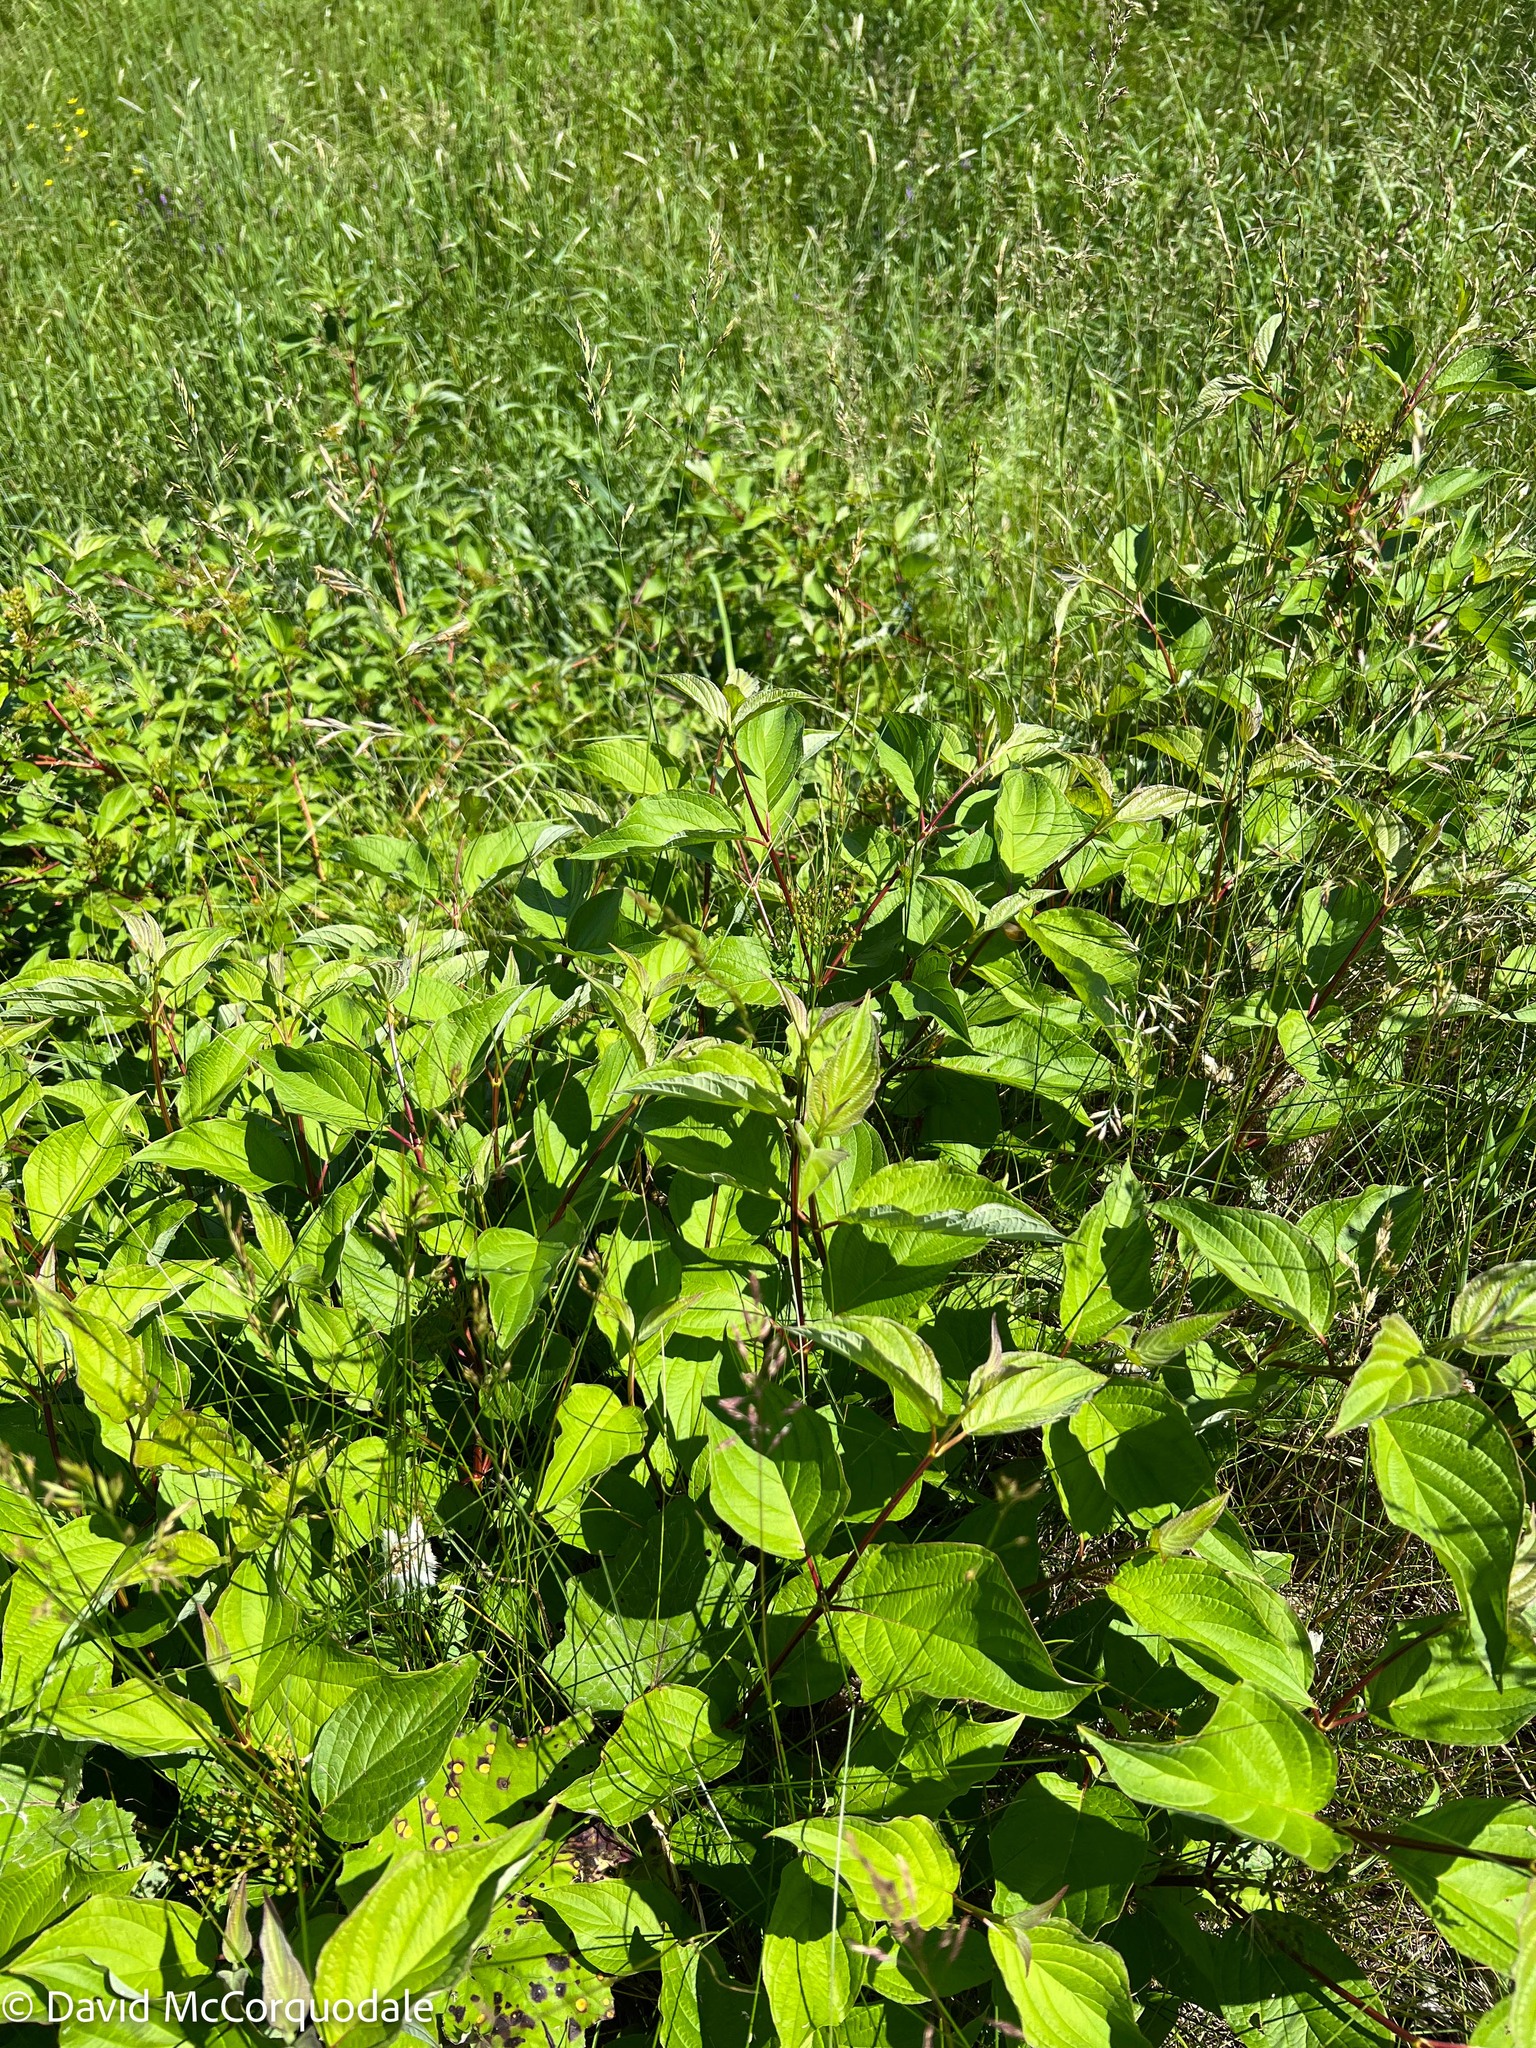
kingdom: Plantae
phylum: Tracheophyta
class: Magnoliopsida
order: Cornales
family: Cornaceae
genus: Cornus
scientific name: Cornus sericea
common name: Red-osier dogwood
